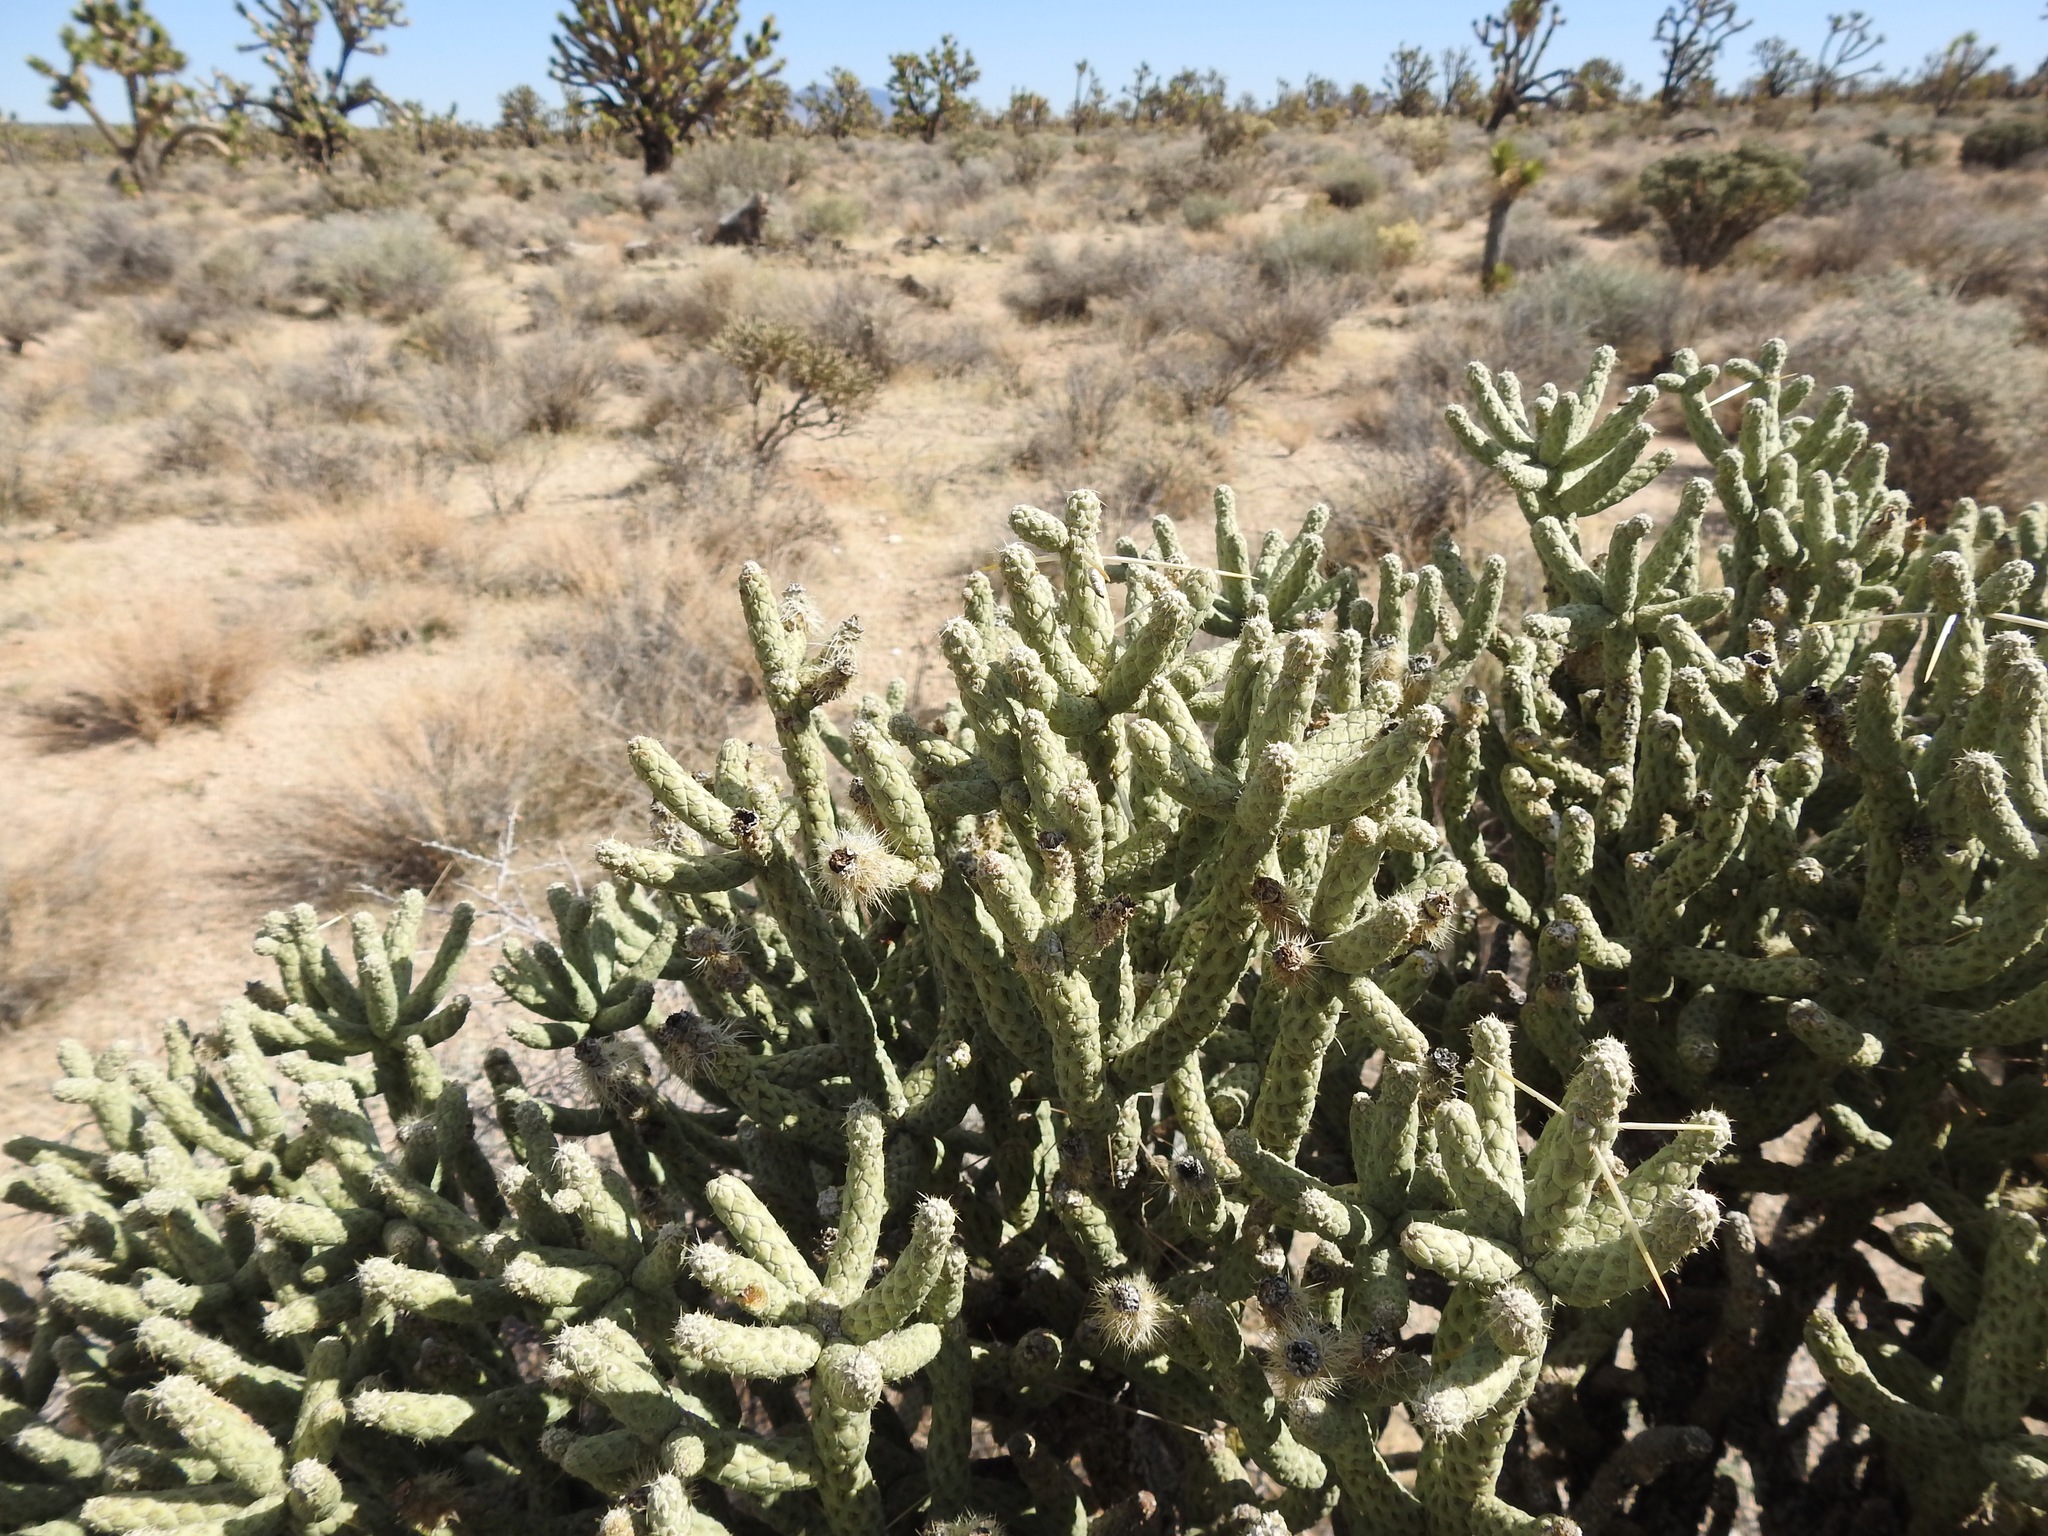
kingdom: Plantae
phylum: Tracheophyta
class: Magnoliopsida
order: Caryophyllales
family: Cactaceae
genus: Cylindropuntia
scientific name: Cylindropuntia ramosissima
